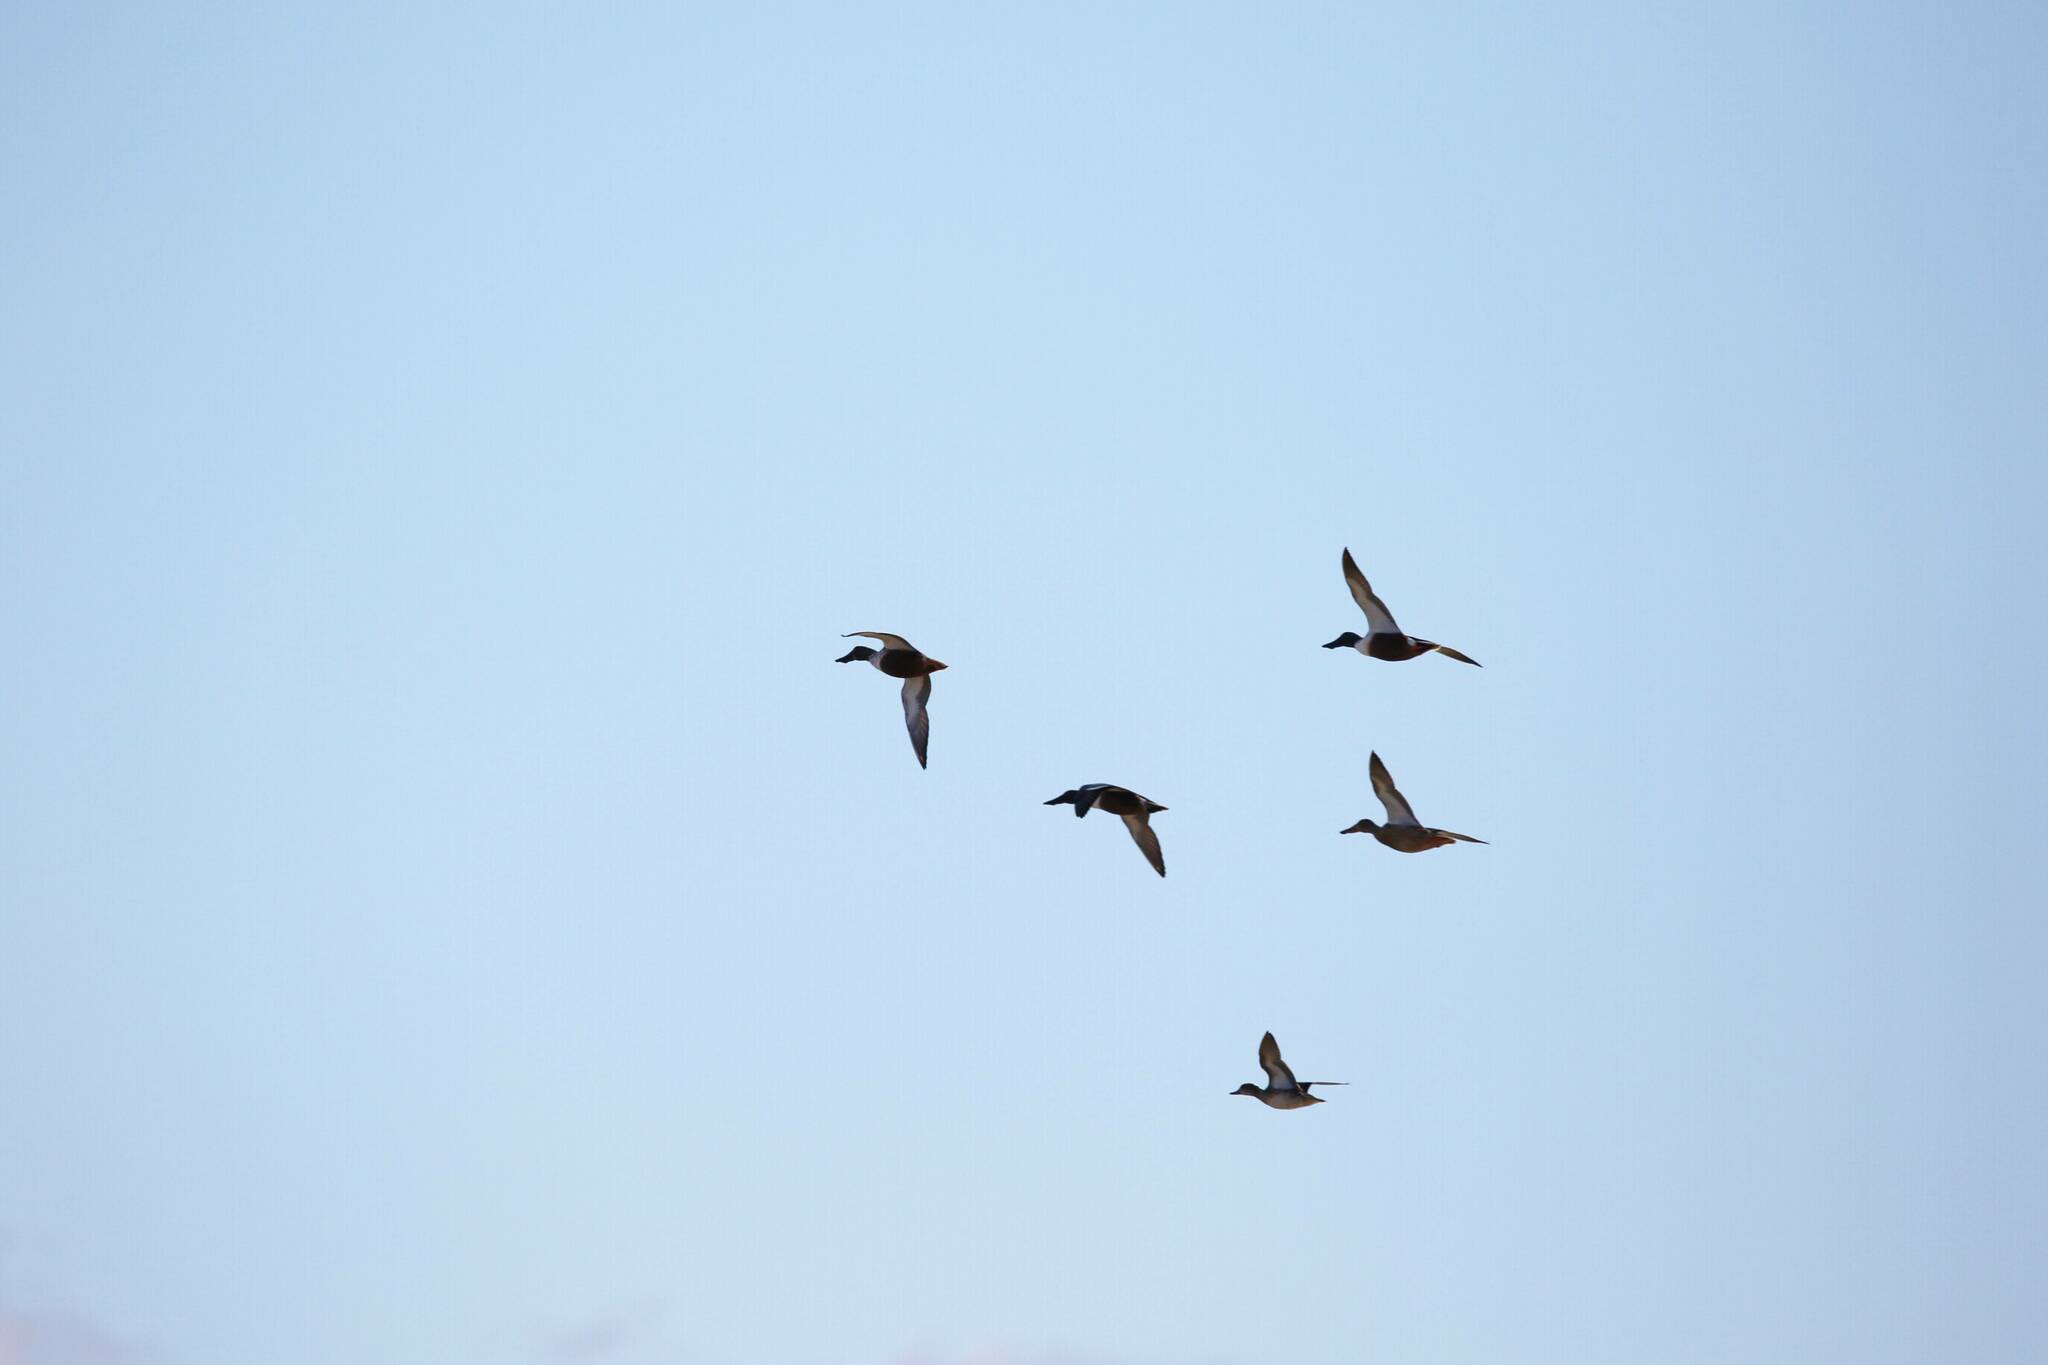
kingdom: Animalia
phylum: Chordata
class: Aves
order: Anseriformes
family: Anatidae
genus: Spatula
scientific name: Spatula clypeata
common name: Northern shoveler
